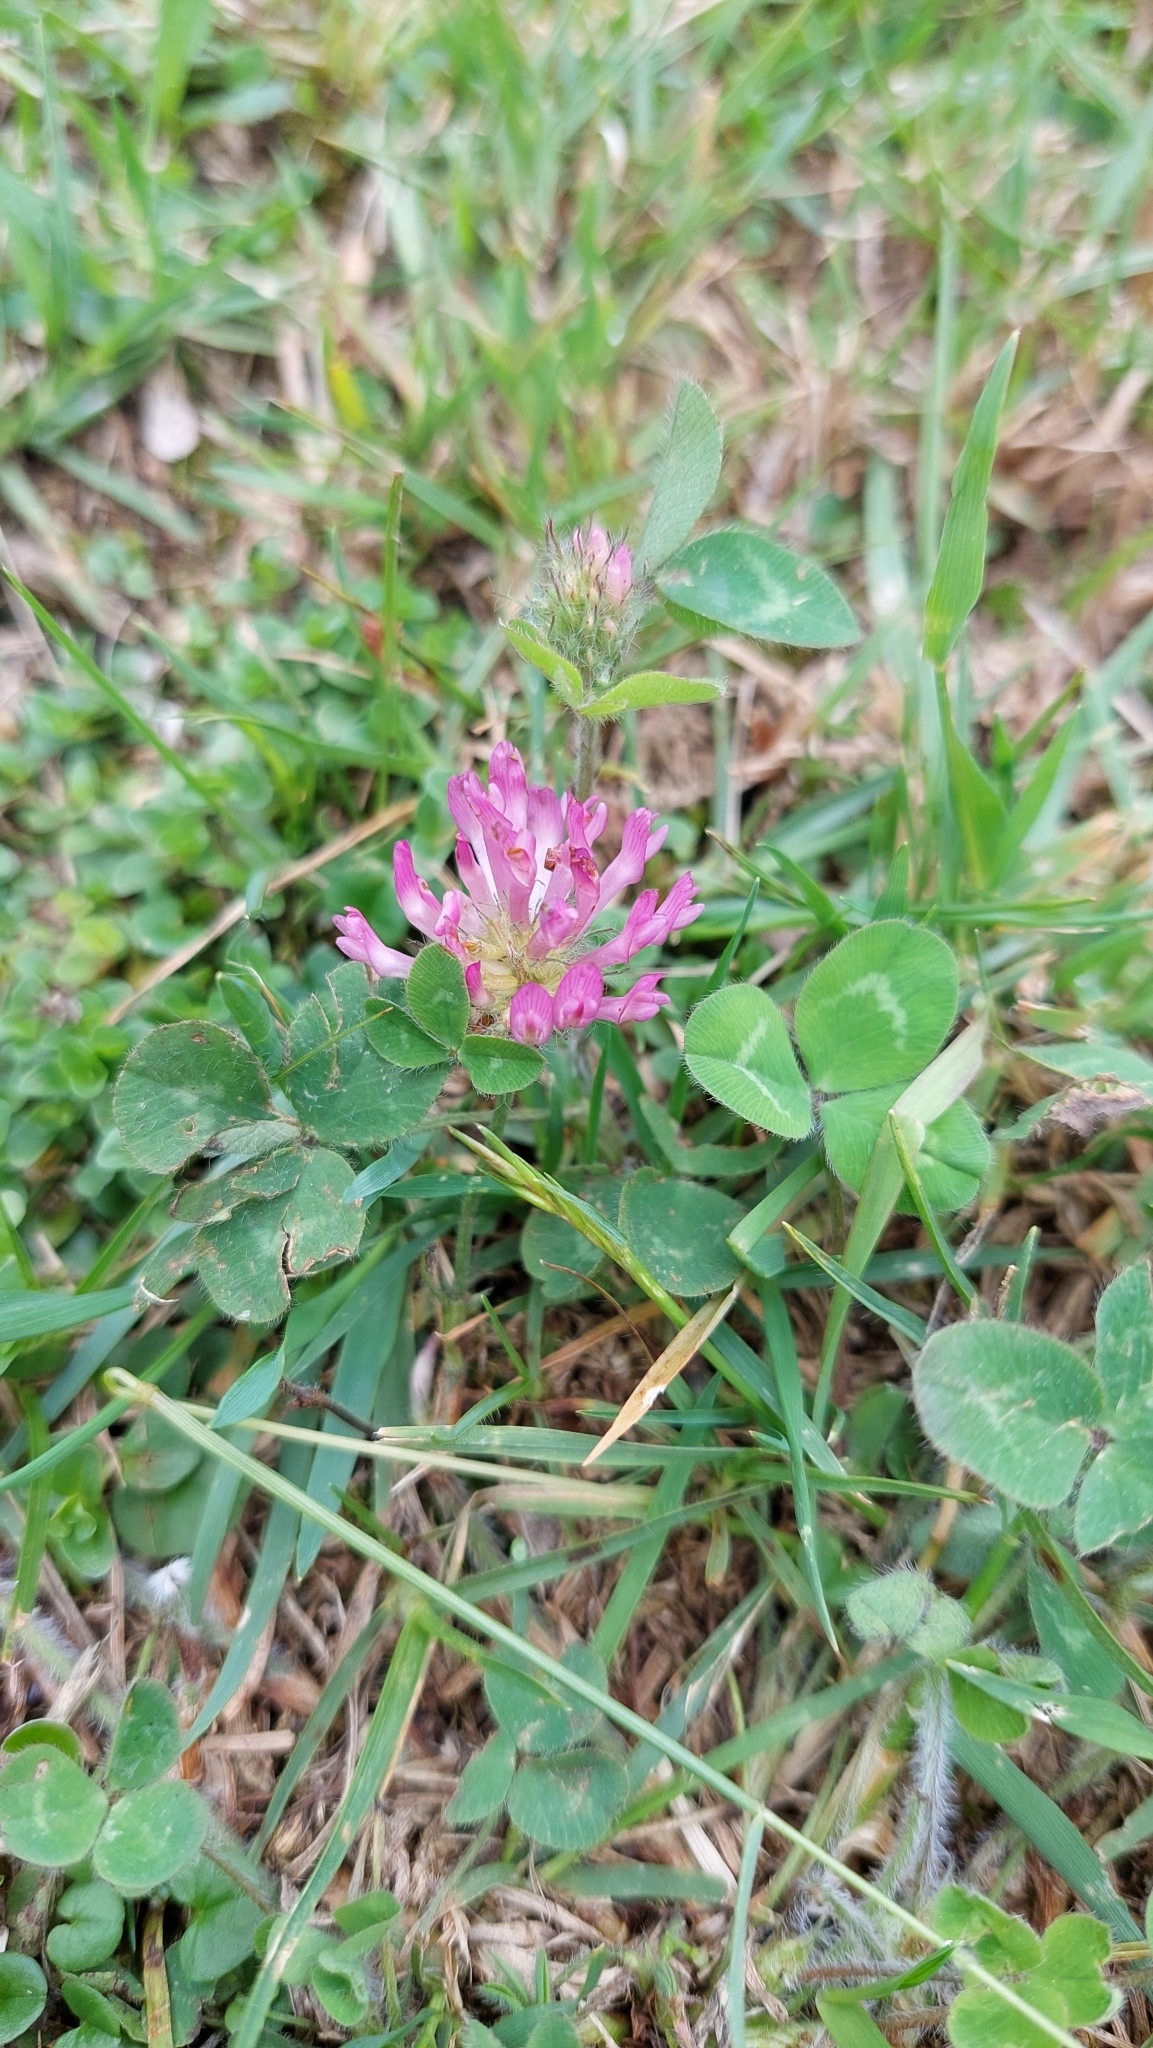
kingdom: Plantae
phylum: Tracheophyta
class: Magnoliopsida
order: Fabales
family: Fabaceae
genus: Trifolium
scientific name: Trifolium pratense
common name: Red clover
